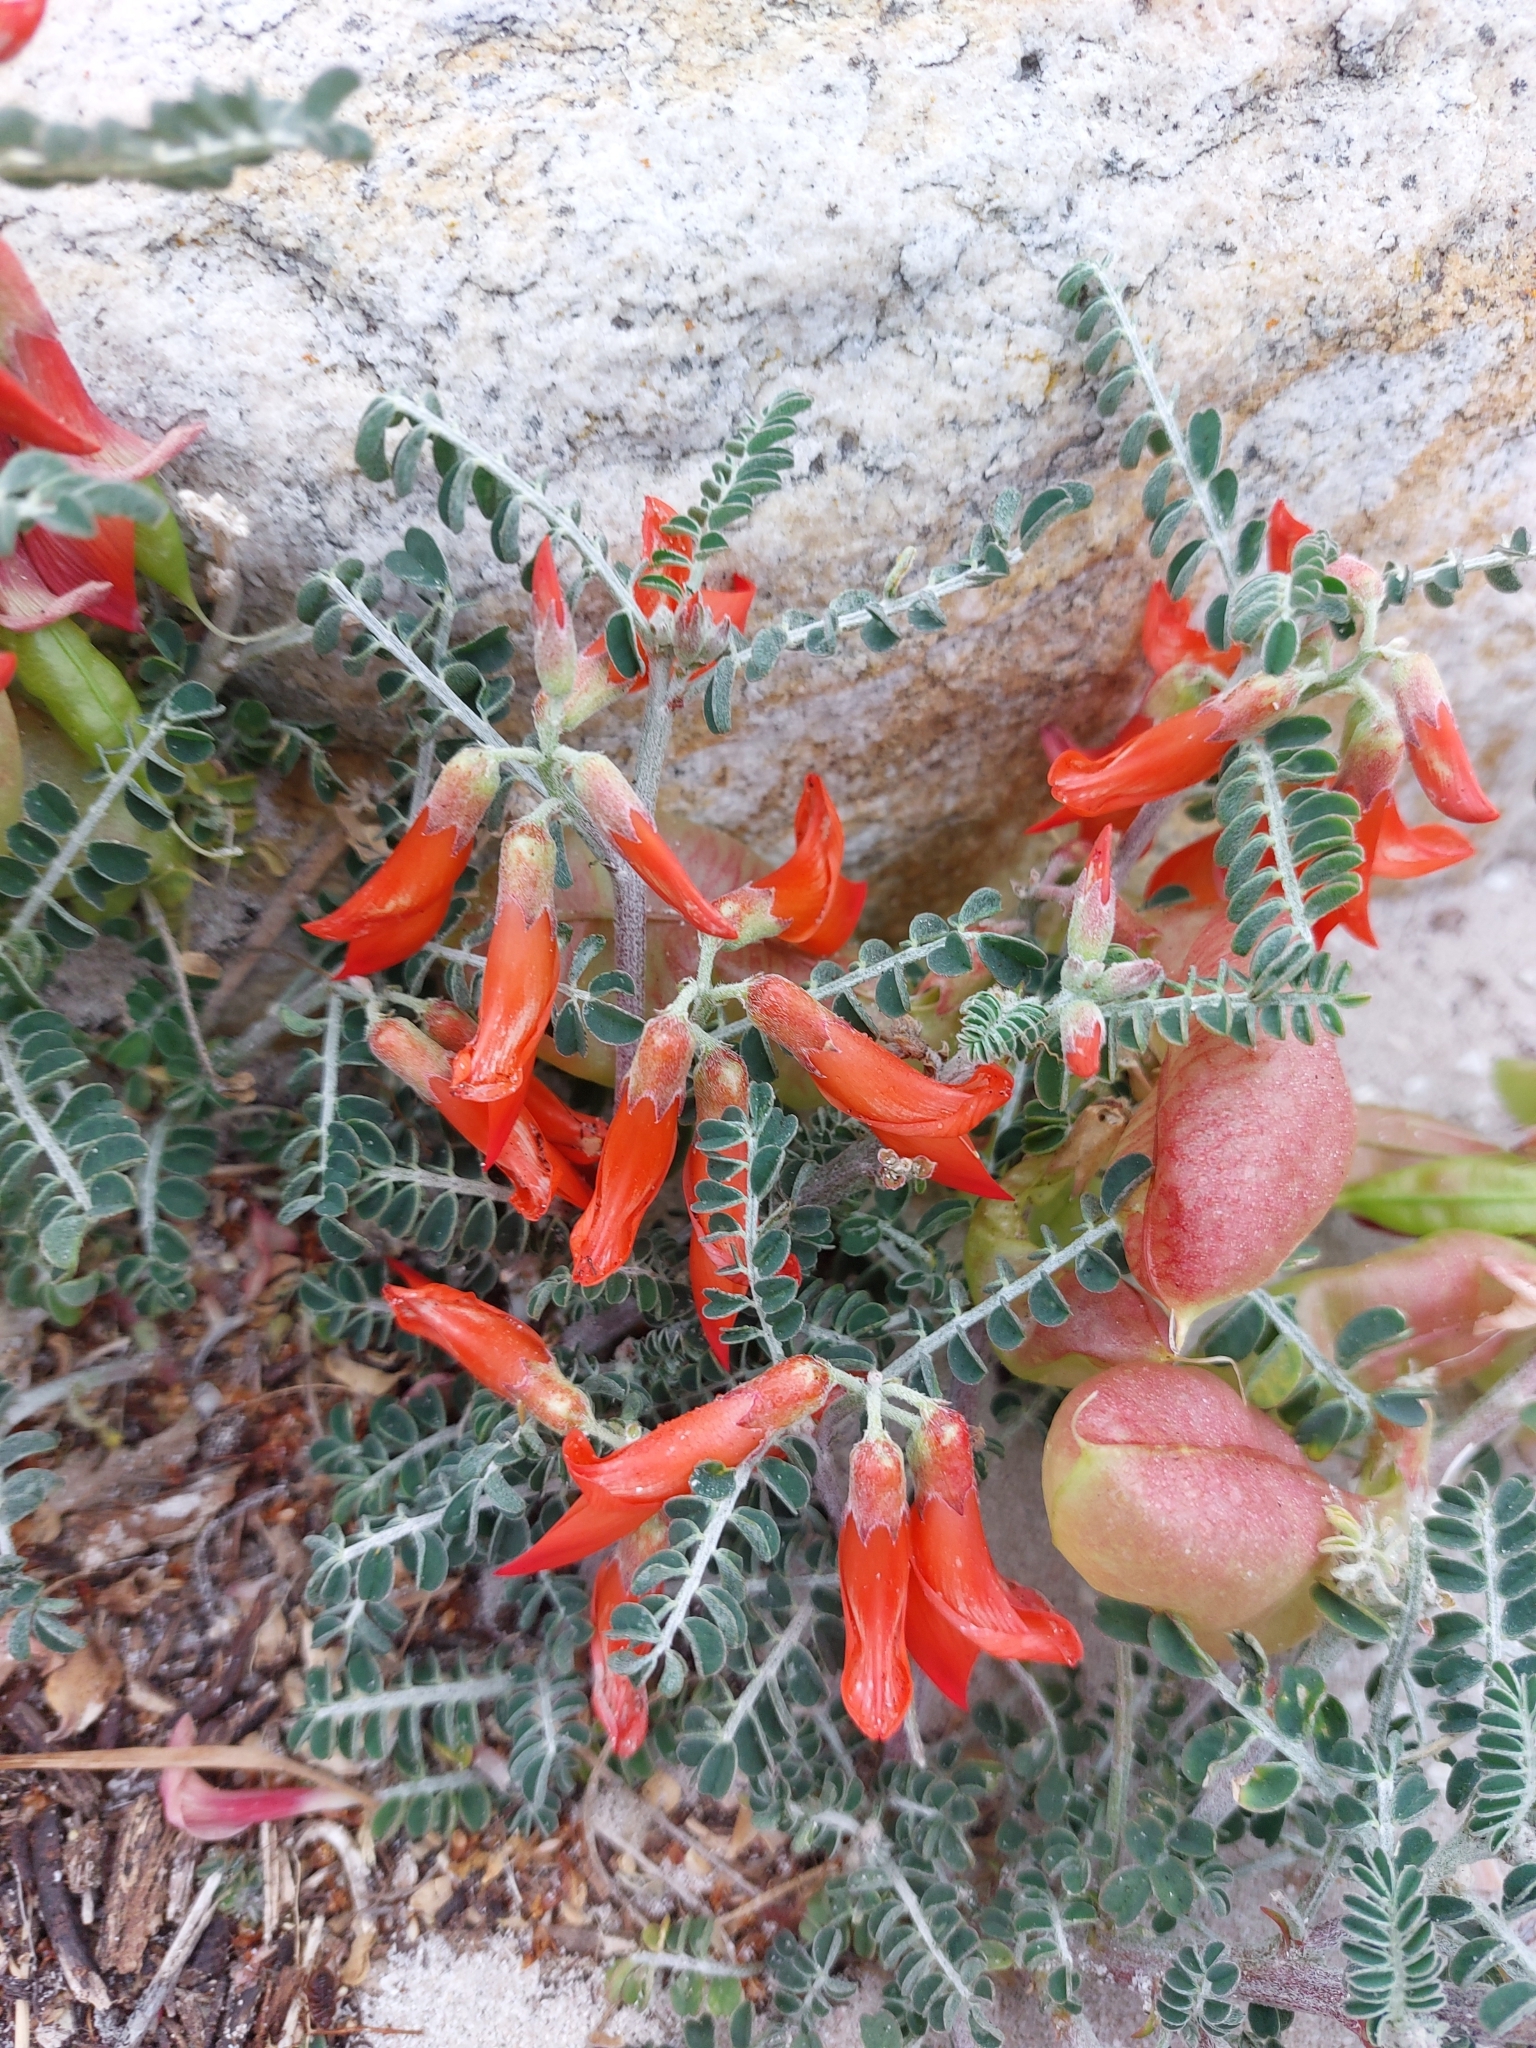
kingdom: Plantae
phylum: Tracheophyta
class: Magnoliopsida
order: Fabales
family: Fabaceae
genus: Lessertia
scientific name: Lessertia frutescens
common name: Balloon-pea
